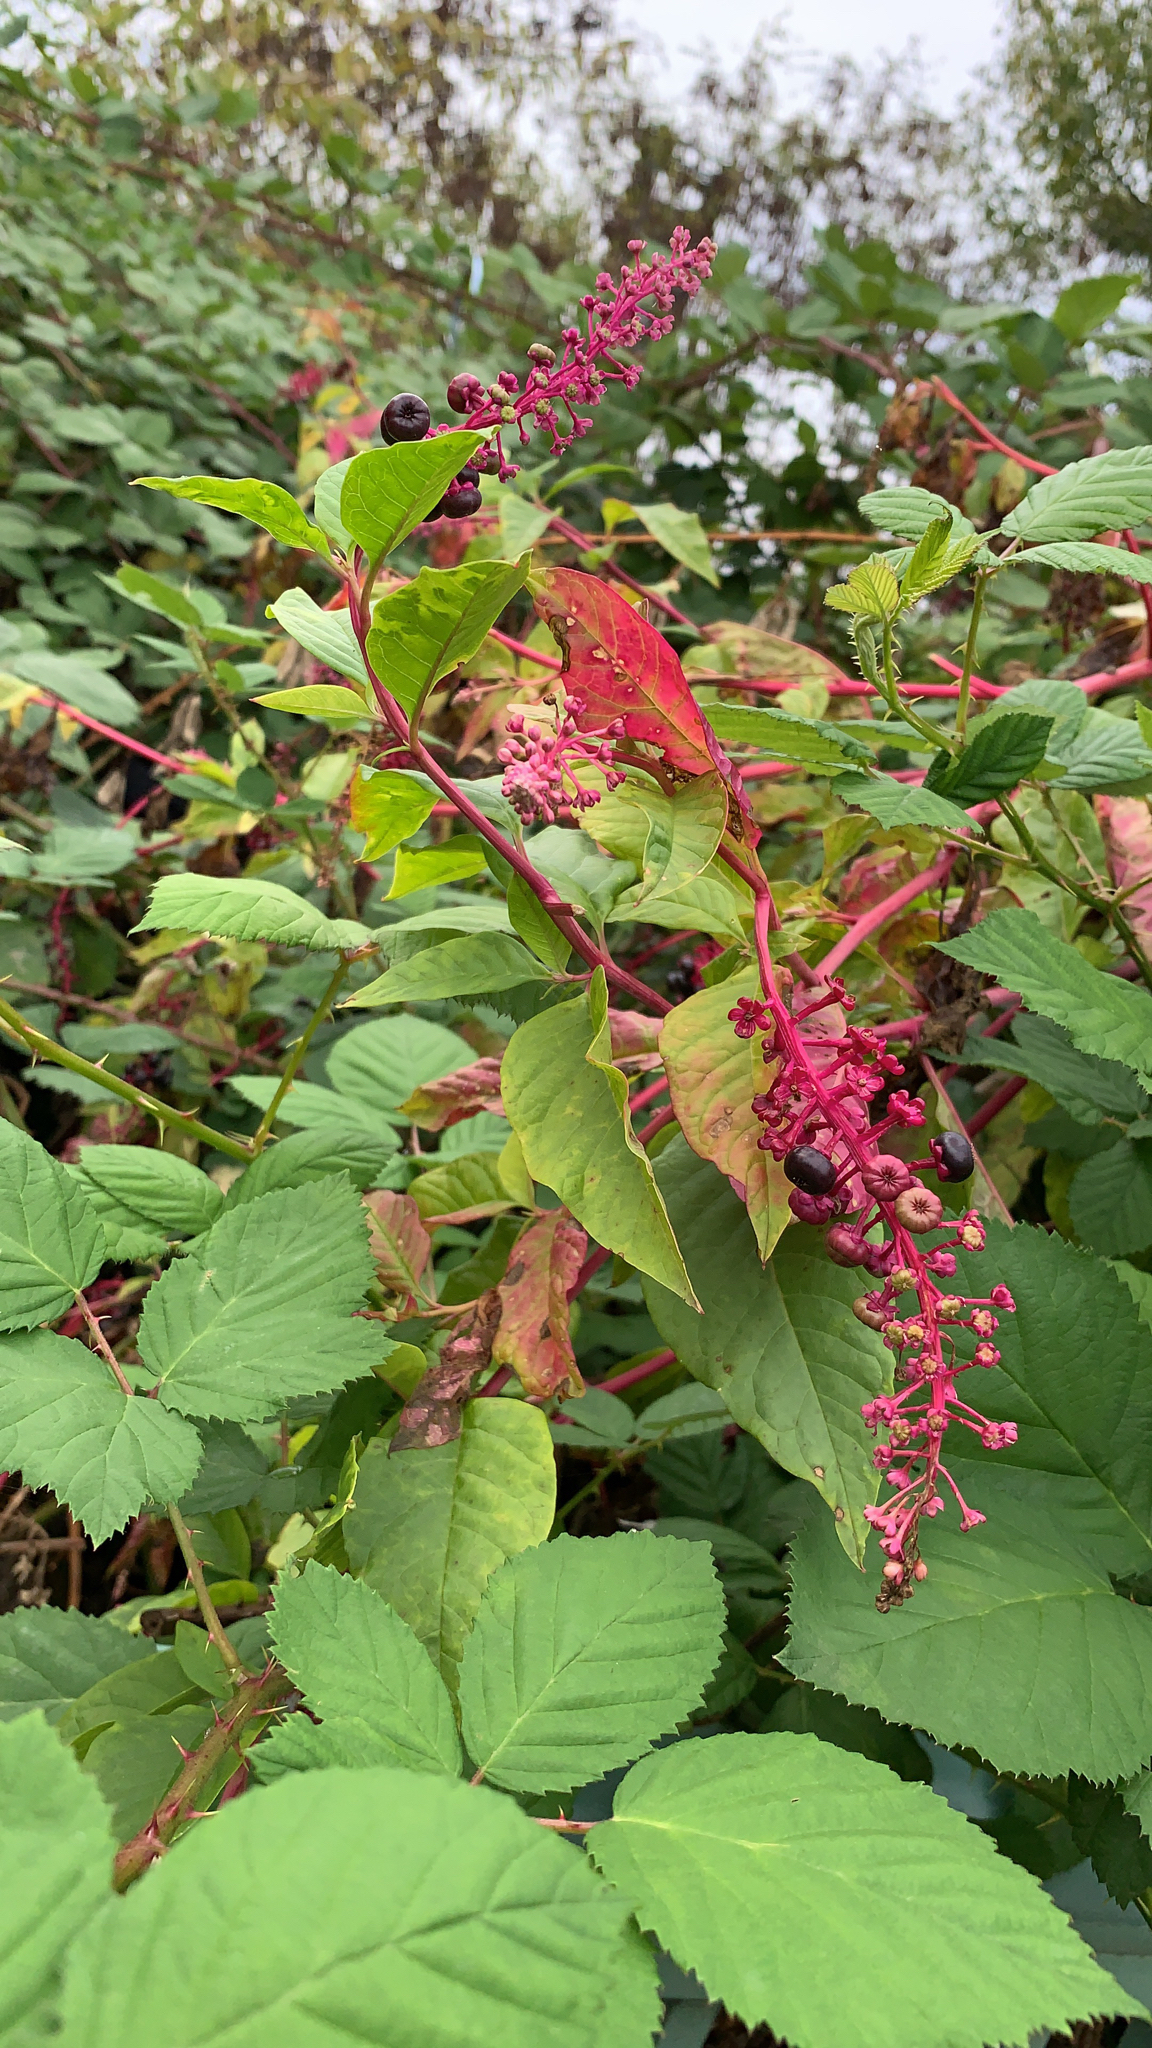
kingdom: Plantae
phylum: Tracheophyta
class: Magnoliopsida
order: Caryophyllales
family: Phytolaccaceae
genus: Phytolacca
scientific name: Phytolacca americana
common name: American pokeweed
